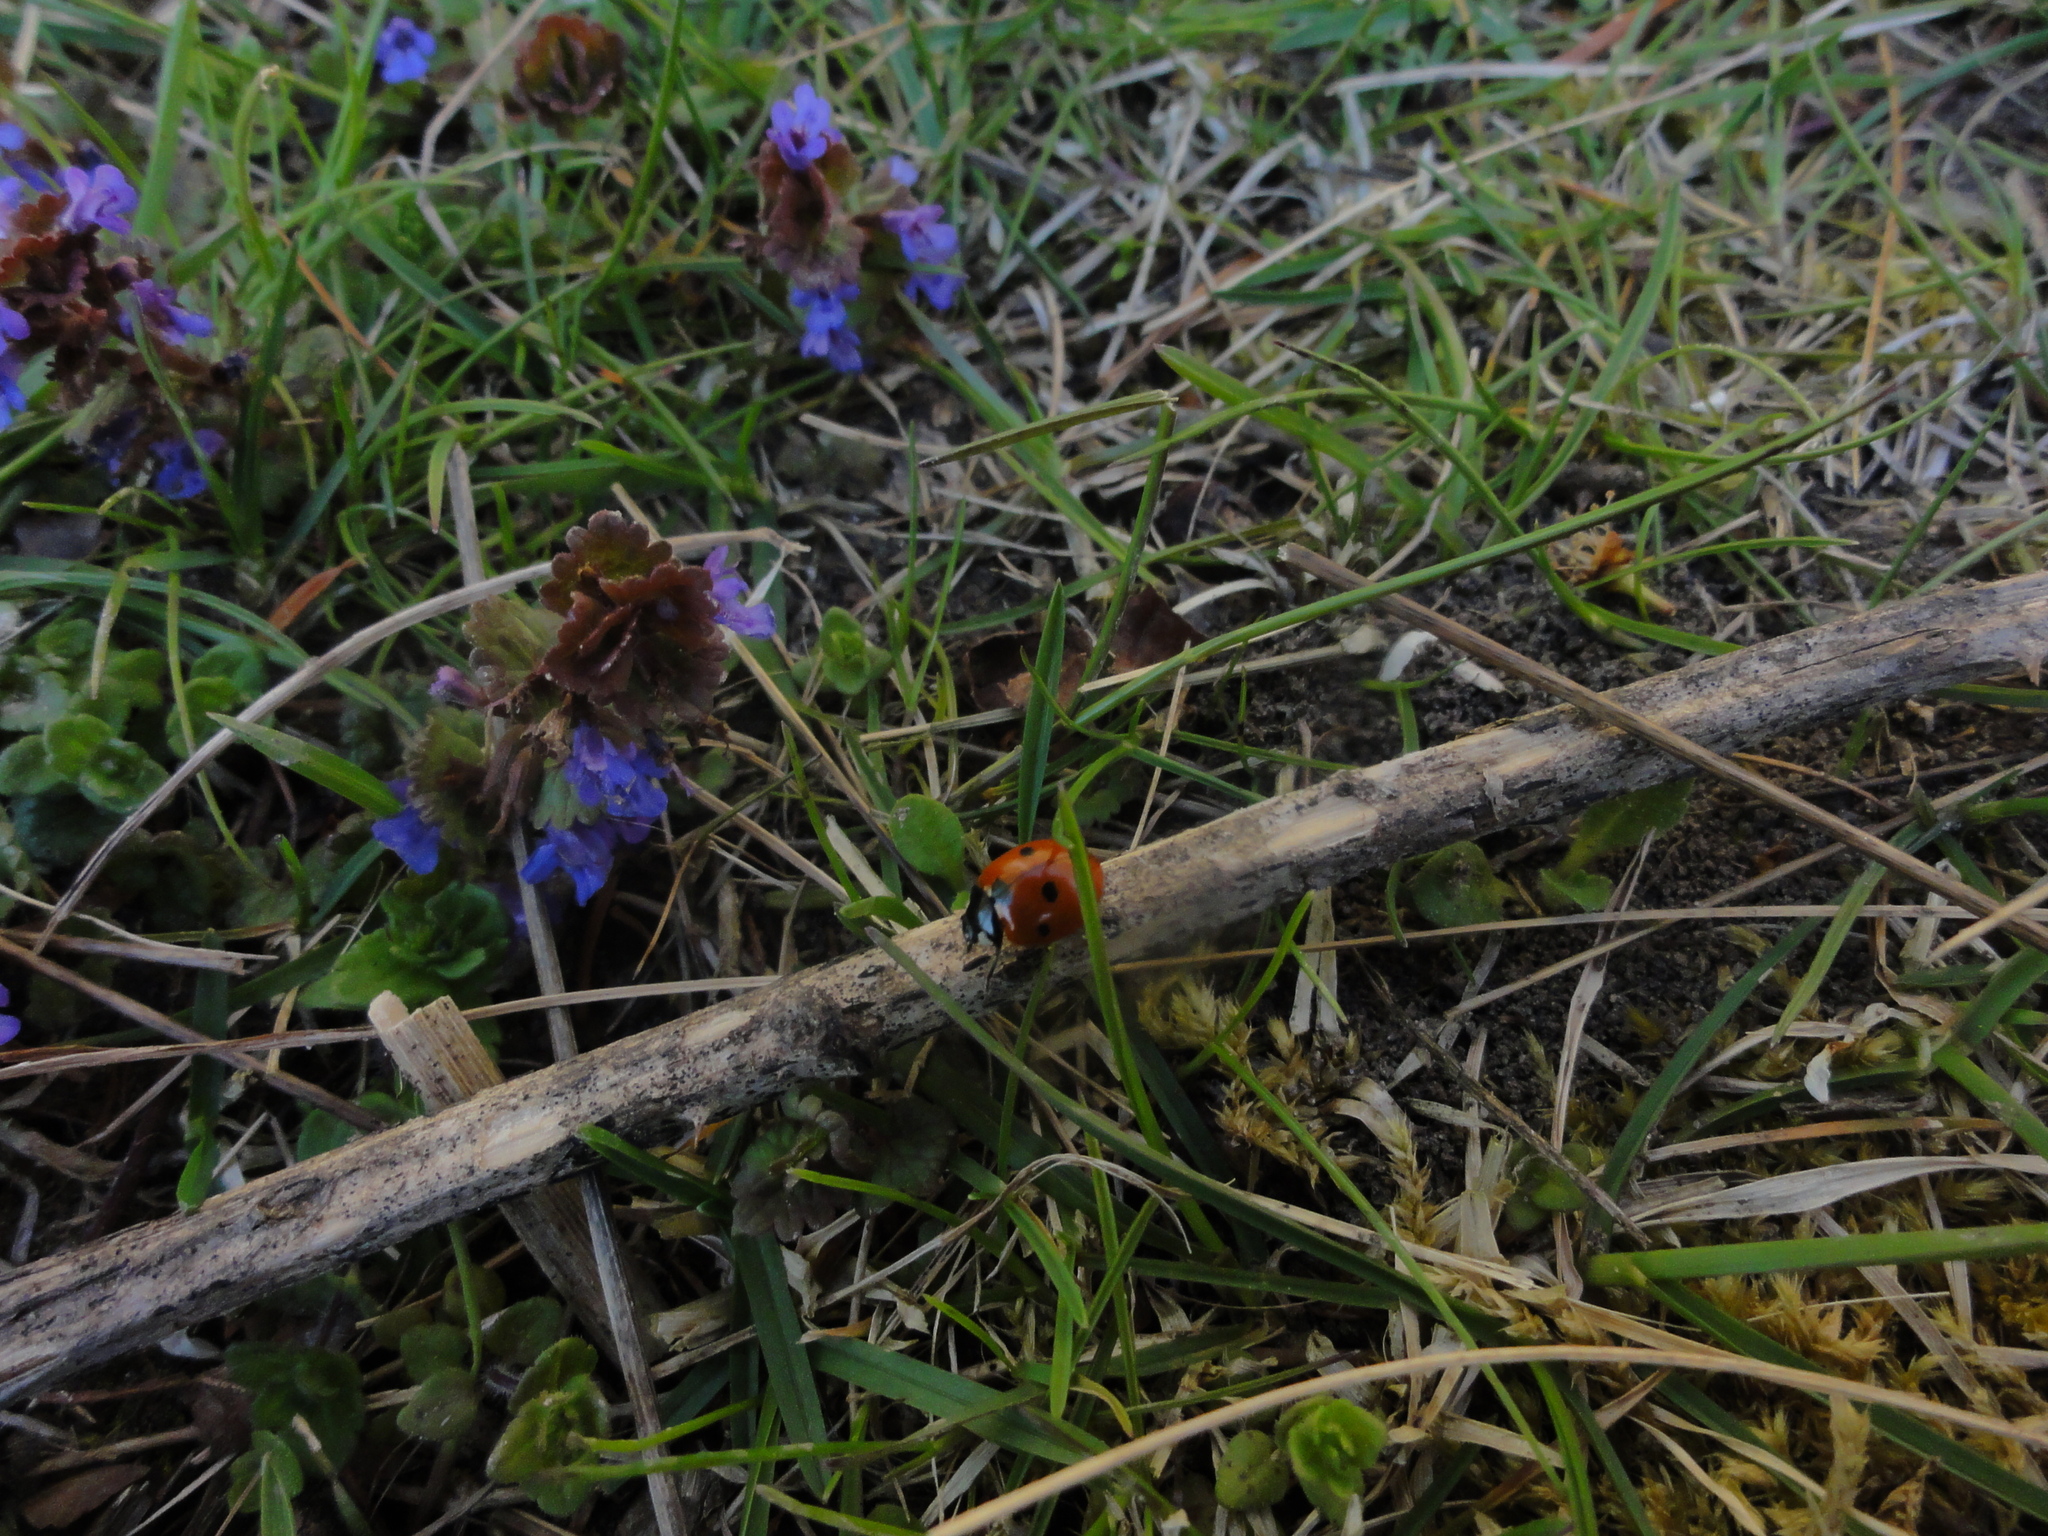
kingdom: Animalia
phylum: Arthropoda
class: Insecta
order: Coleoptera
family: Coccinellidae
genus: Coccinella
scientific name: Coccinella septempunctata
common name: Sevenspotted lady beetle
